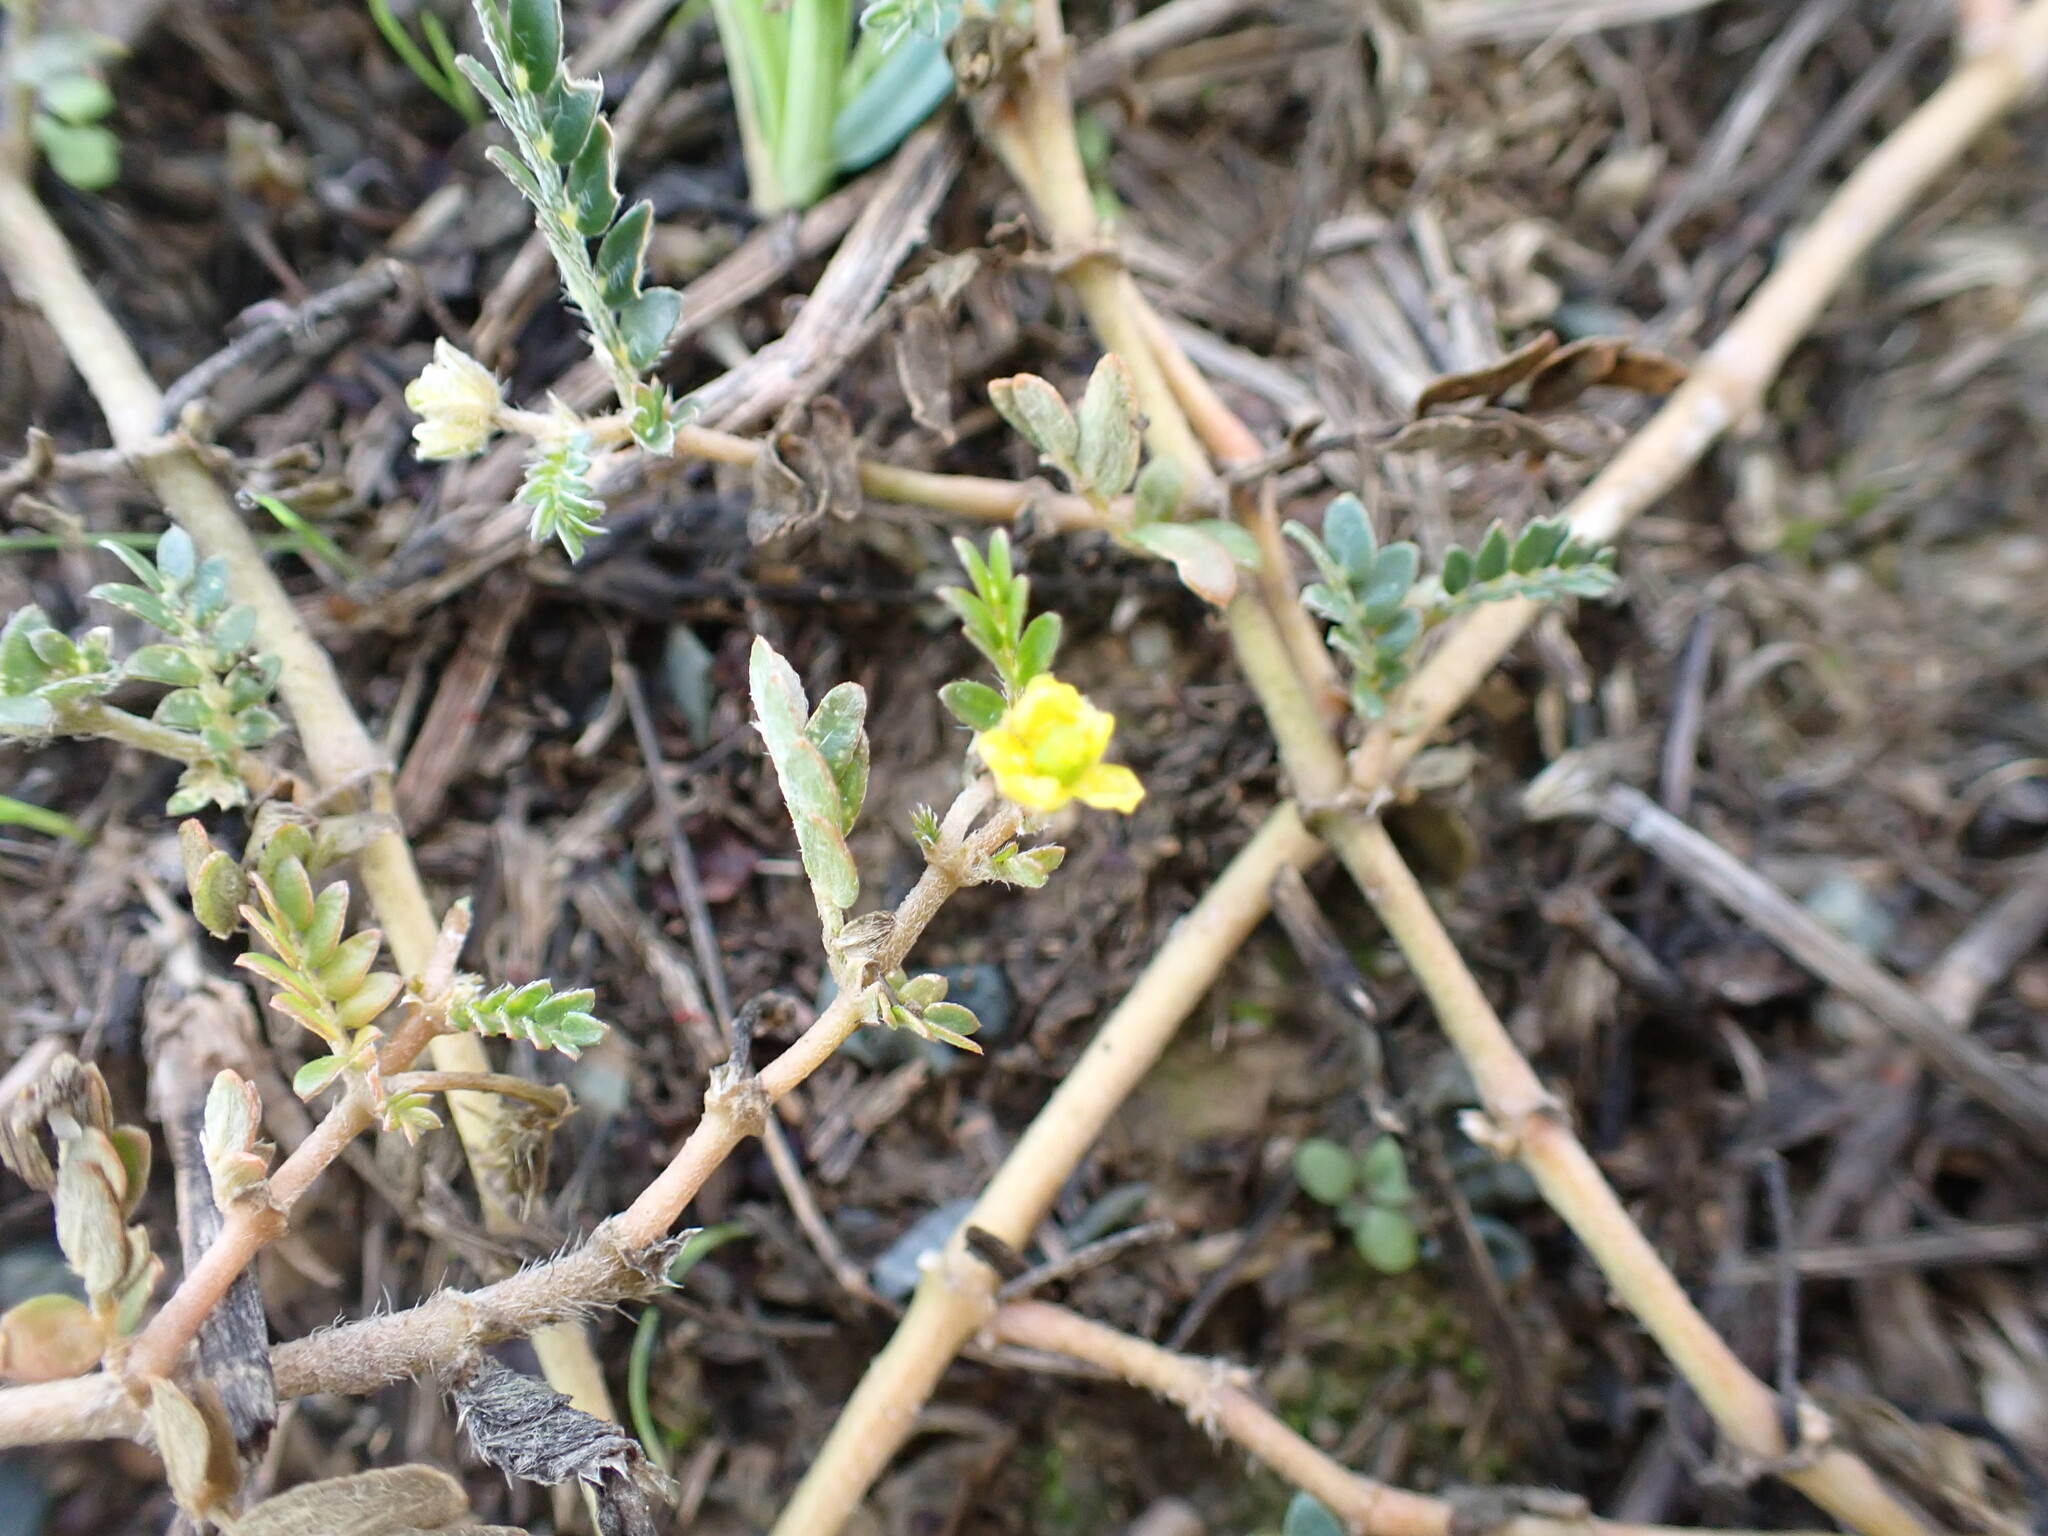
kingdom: Plantae
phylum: Tracheophyta
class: Magnoliopsida
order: Zygophyllales
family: Zygophyllaceae
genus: Tribulus
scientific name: Tribulus terrestris
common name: Puncturevine
